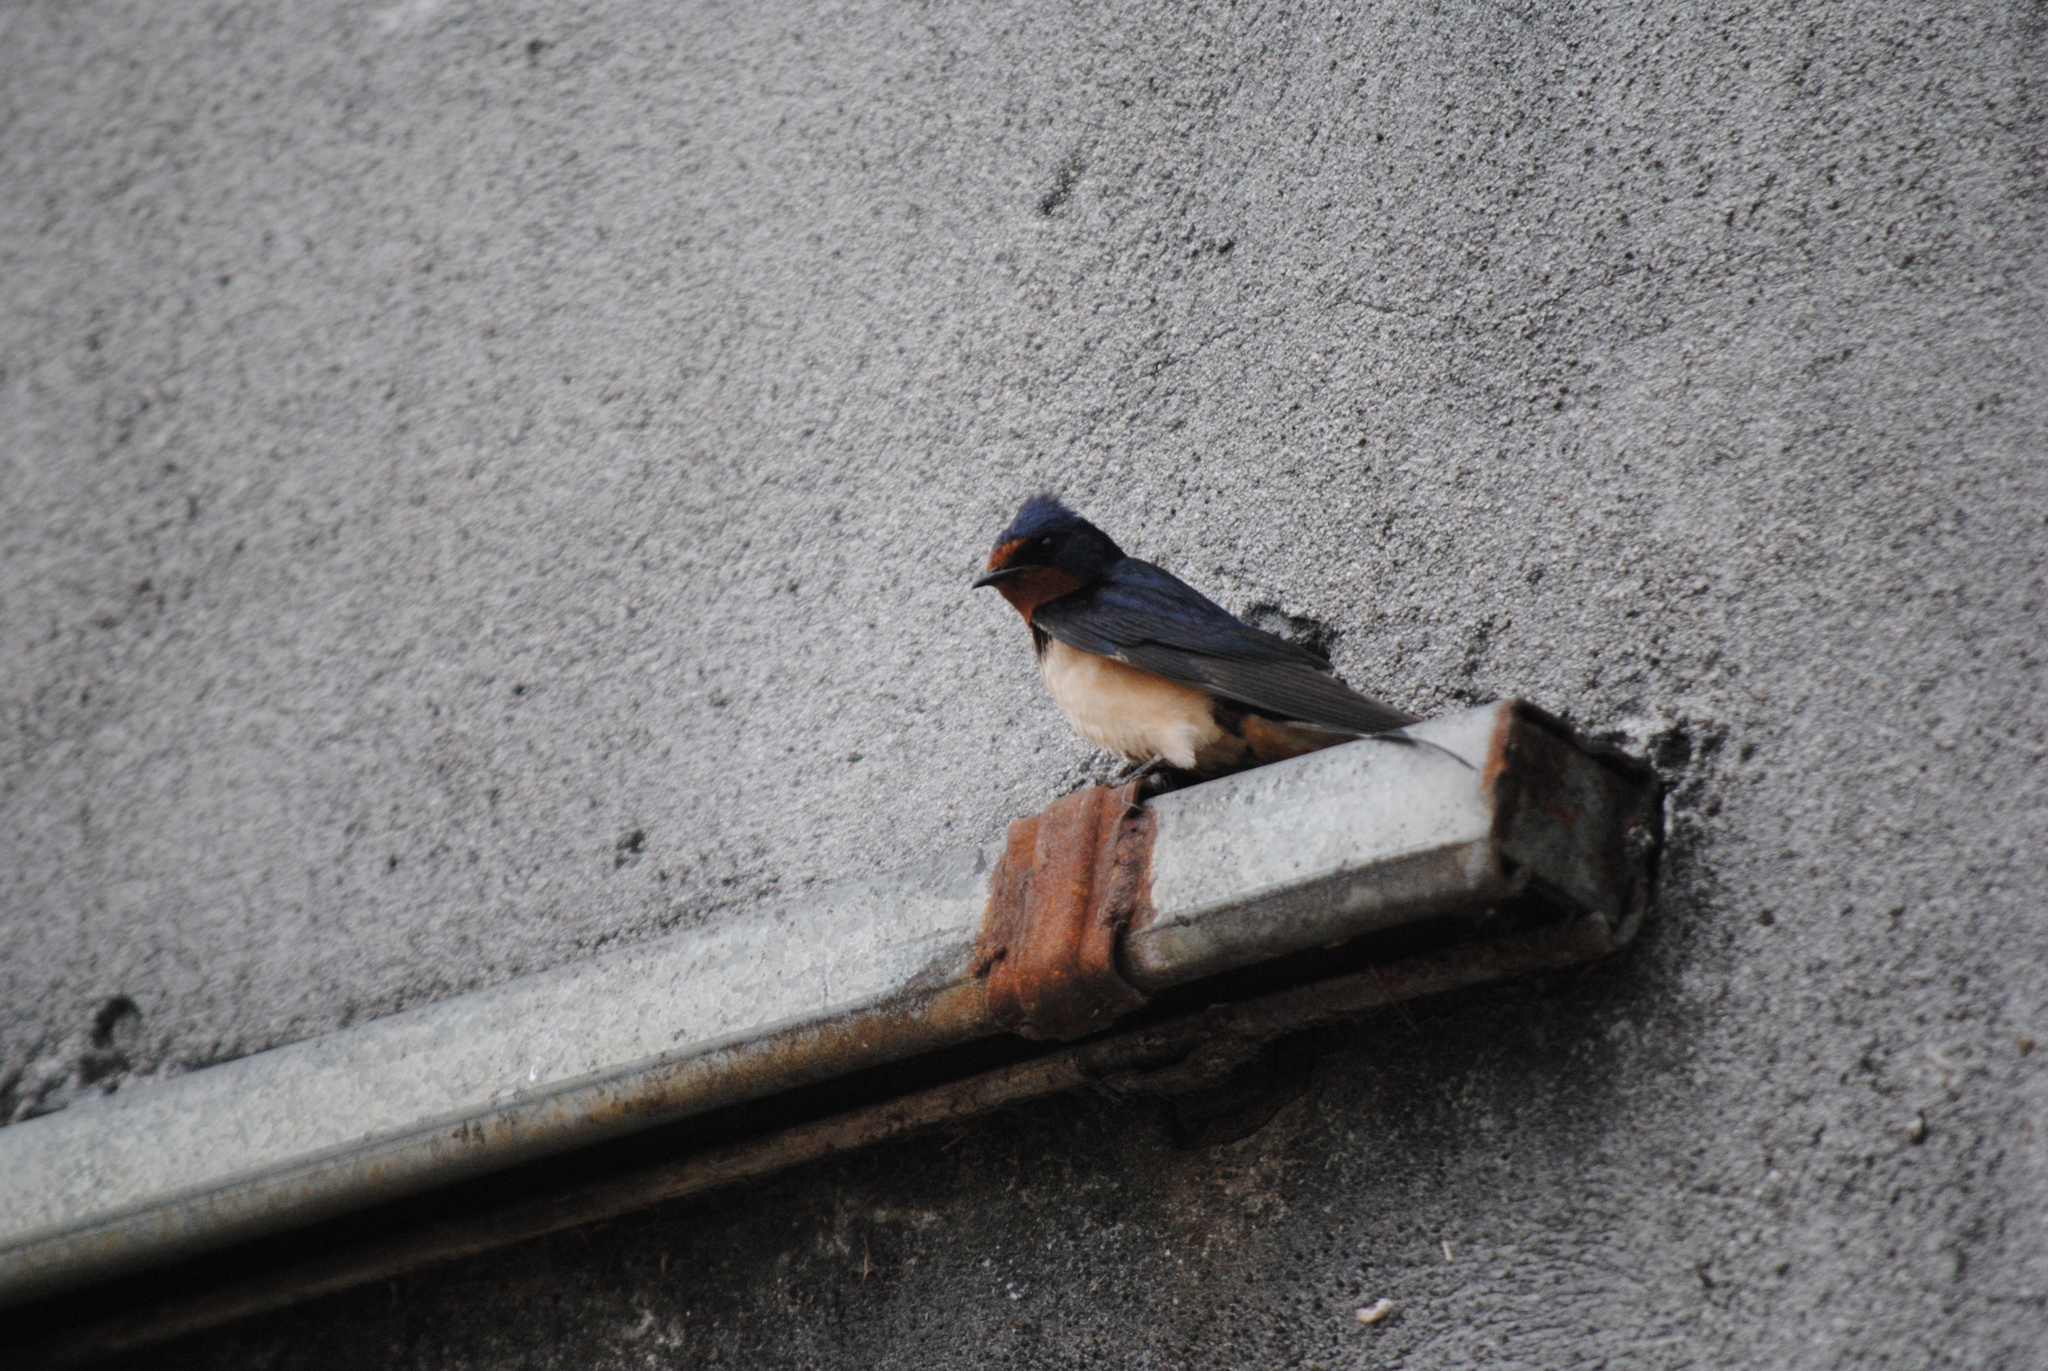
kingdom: Animalia
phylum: Chordata
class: Aves
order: Passeriformes
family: Hirundinidae
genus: Hirundo
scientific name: Hirundo rustica
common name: Barn swallow
